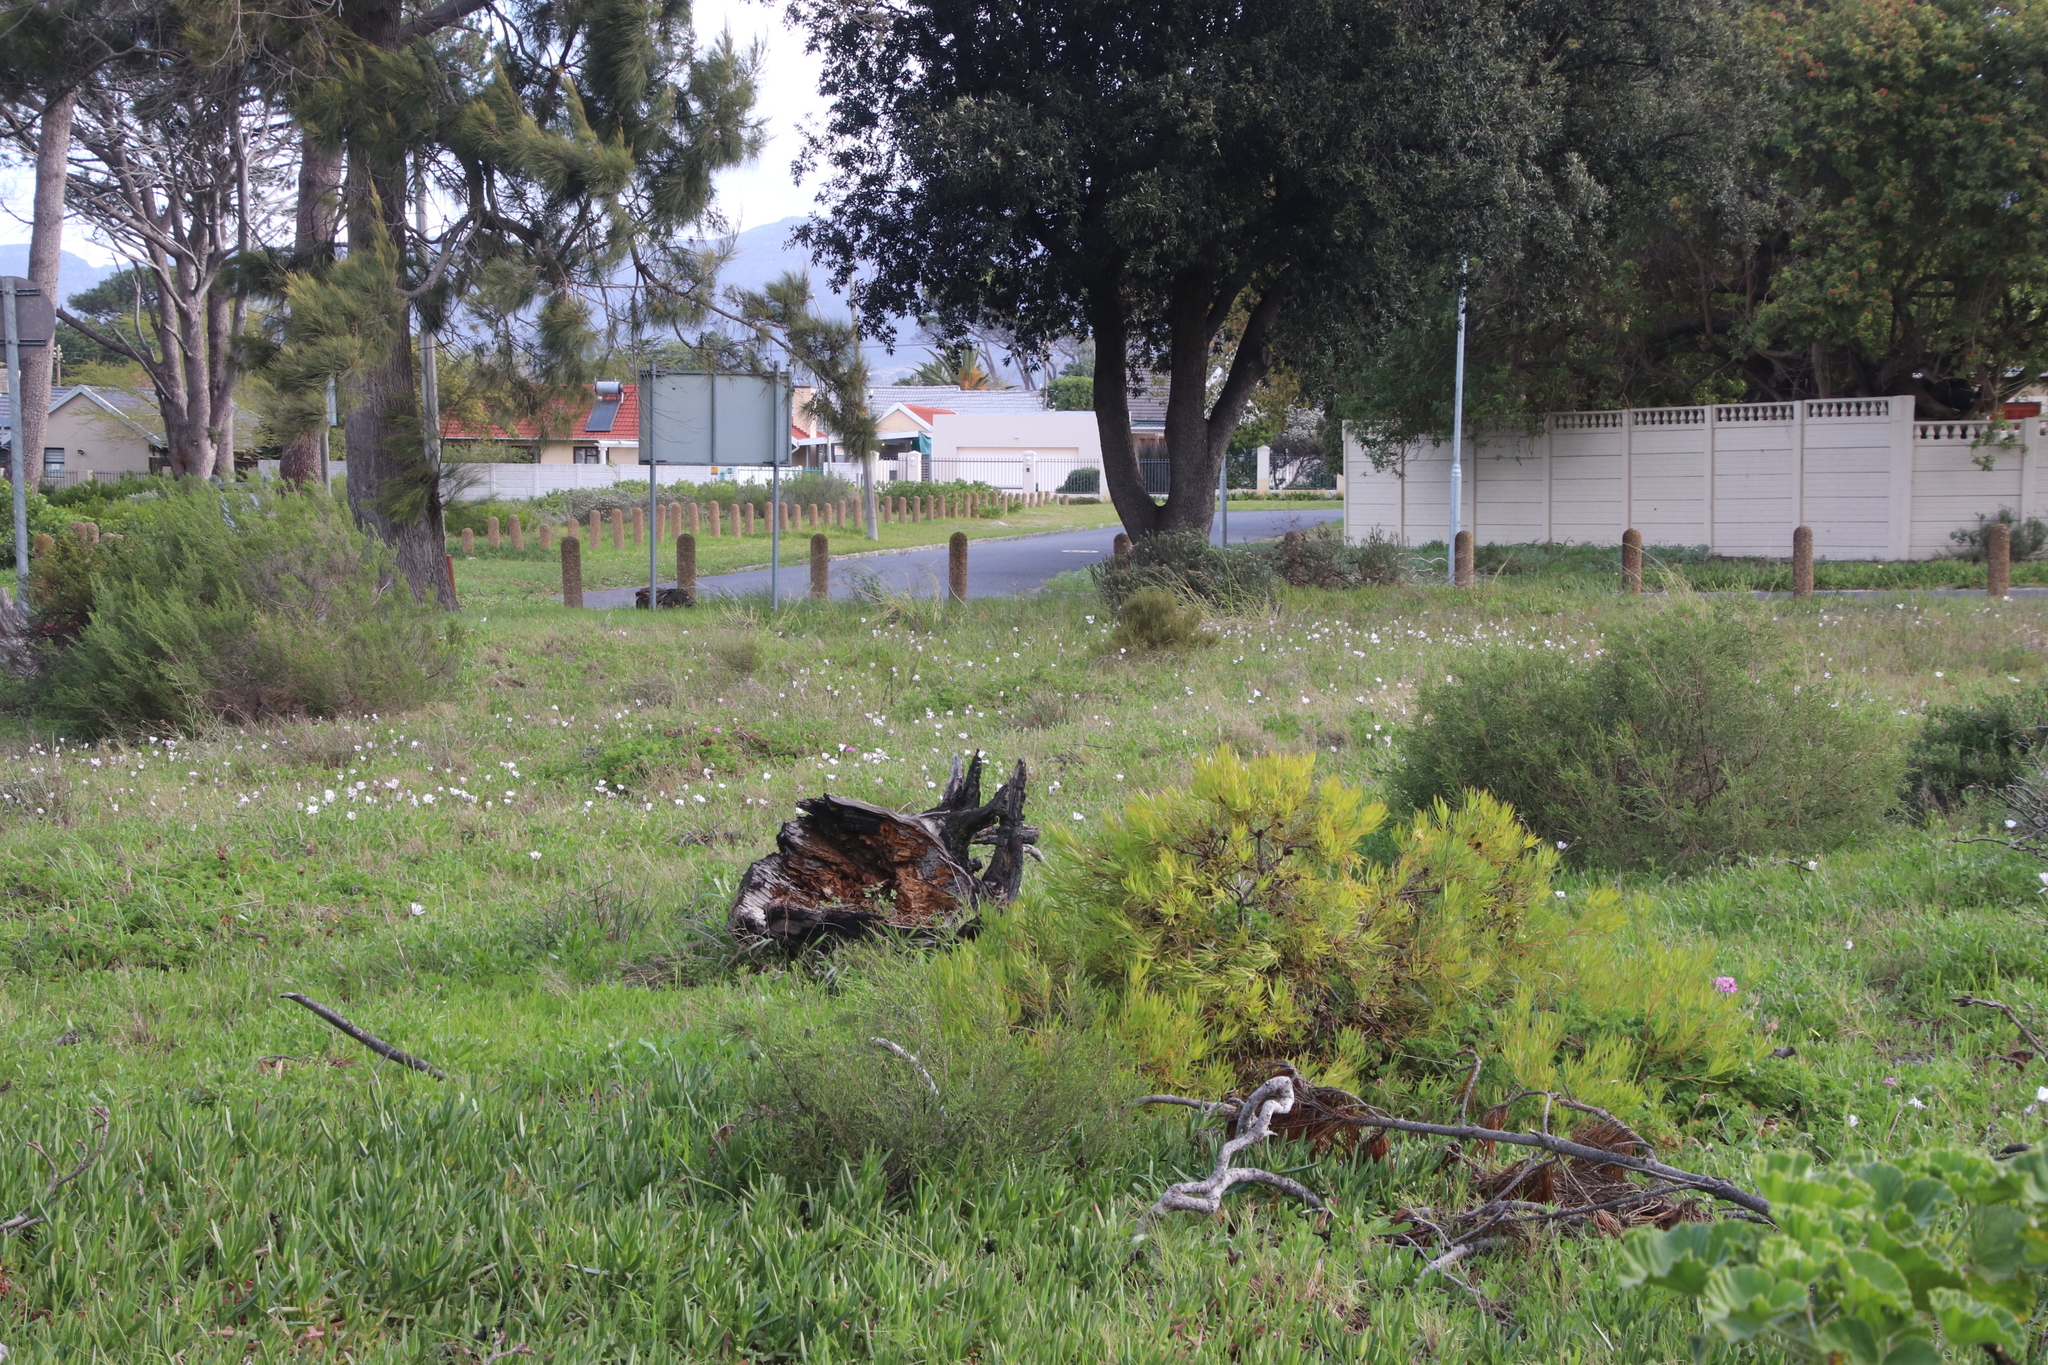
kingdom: Plantae
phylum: Tracheophyta
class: Magnoliopsida
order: Proteales
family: Proteaceae
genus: Leucadendron
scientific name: Leucadendron salignum
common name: Common sunshine conebush
